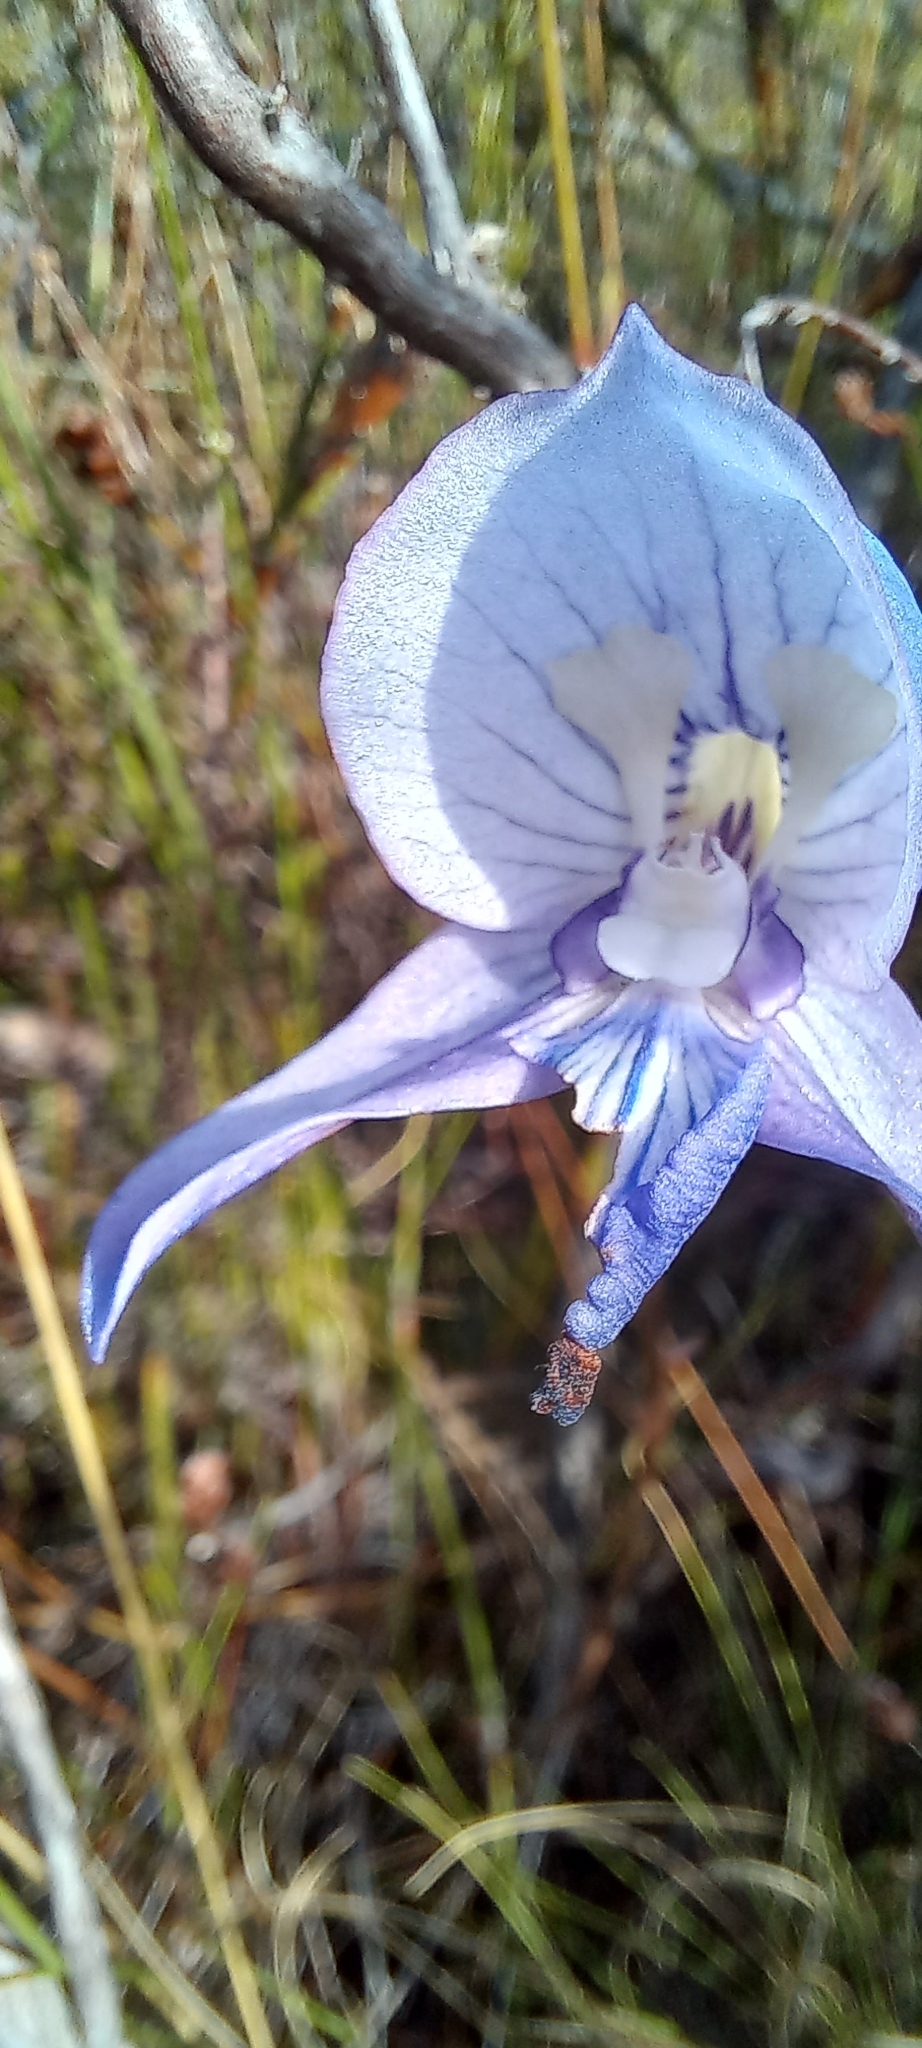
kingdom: Plantae
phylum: Tracheophyta
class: Liliopsida
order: Asparagales
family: Orchidaceae
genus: Disa
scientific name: Disa purpurascens
